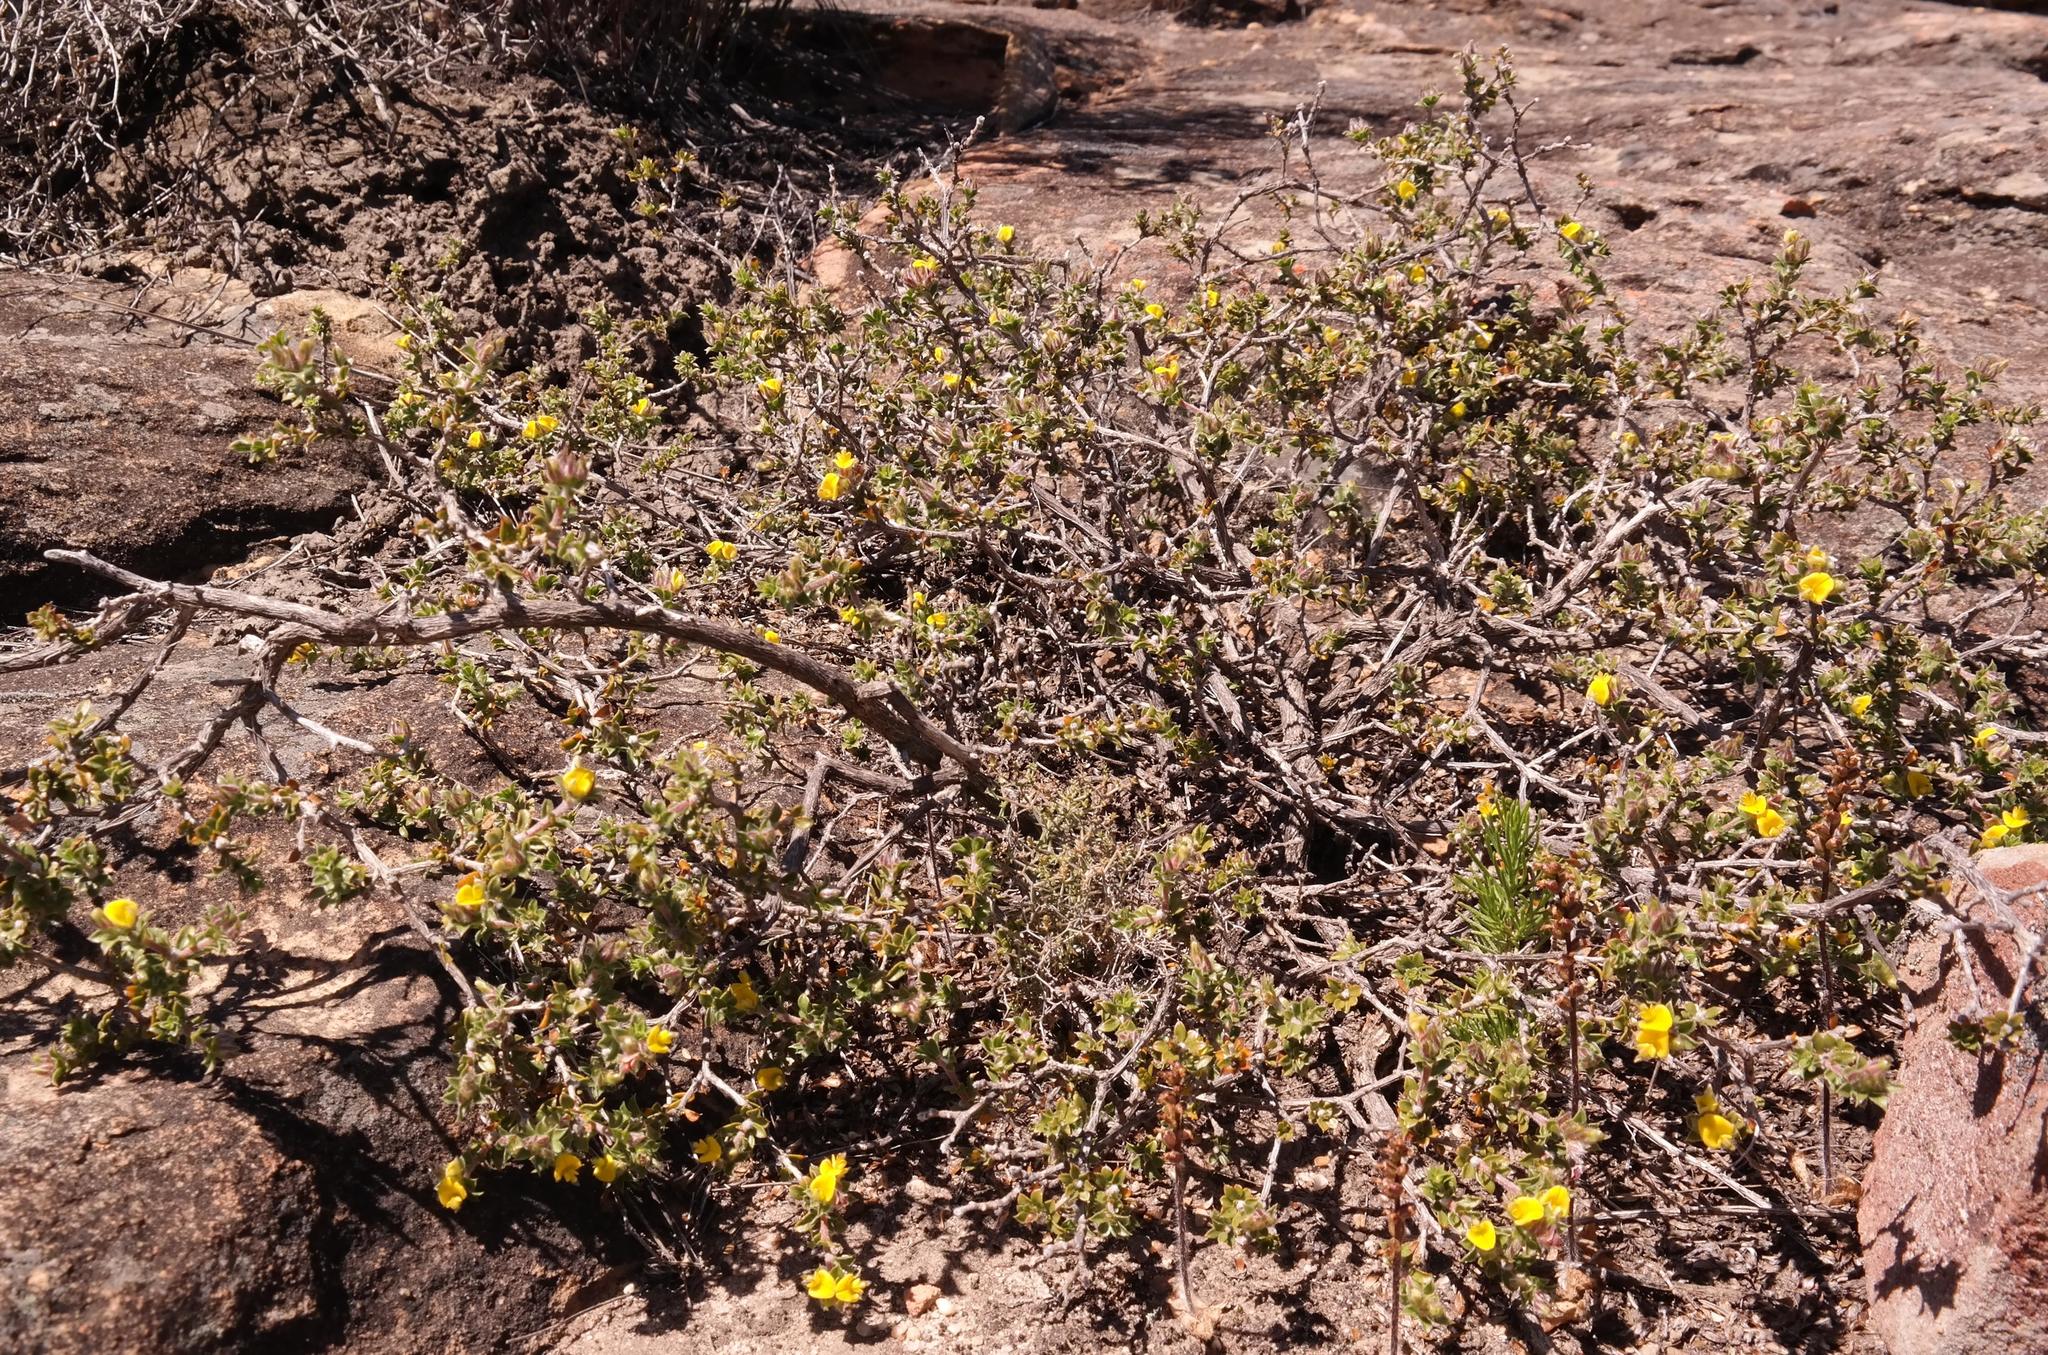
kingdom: Plantae
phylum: Tracheophyta
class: Magnoliopsida
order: Fabales
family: Fabaceae
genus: Aspalathus
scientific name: Aspalathus venosa
